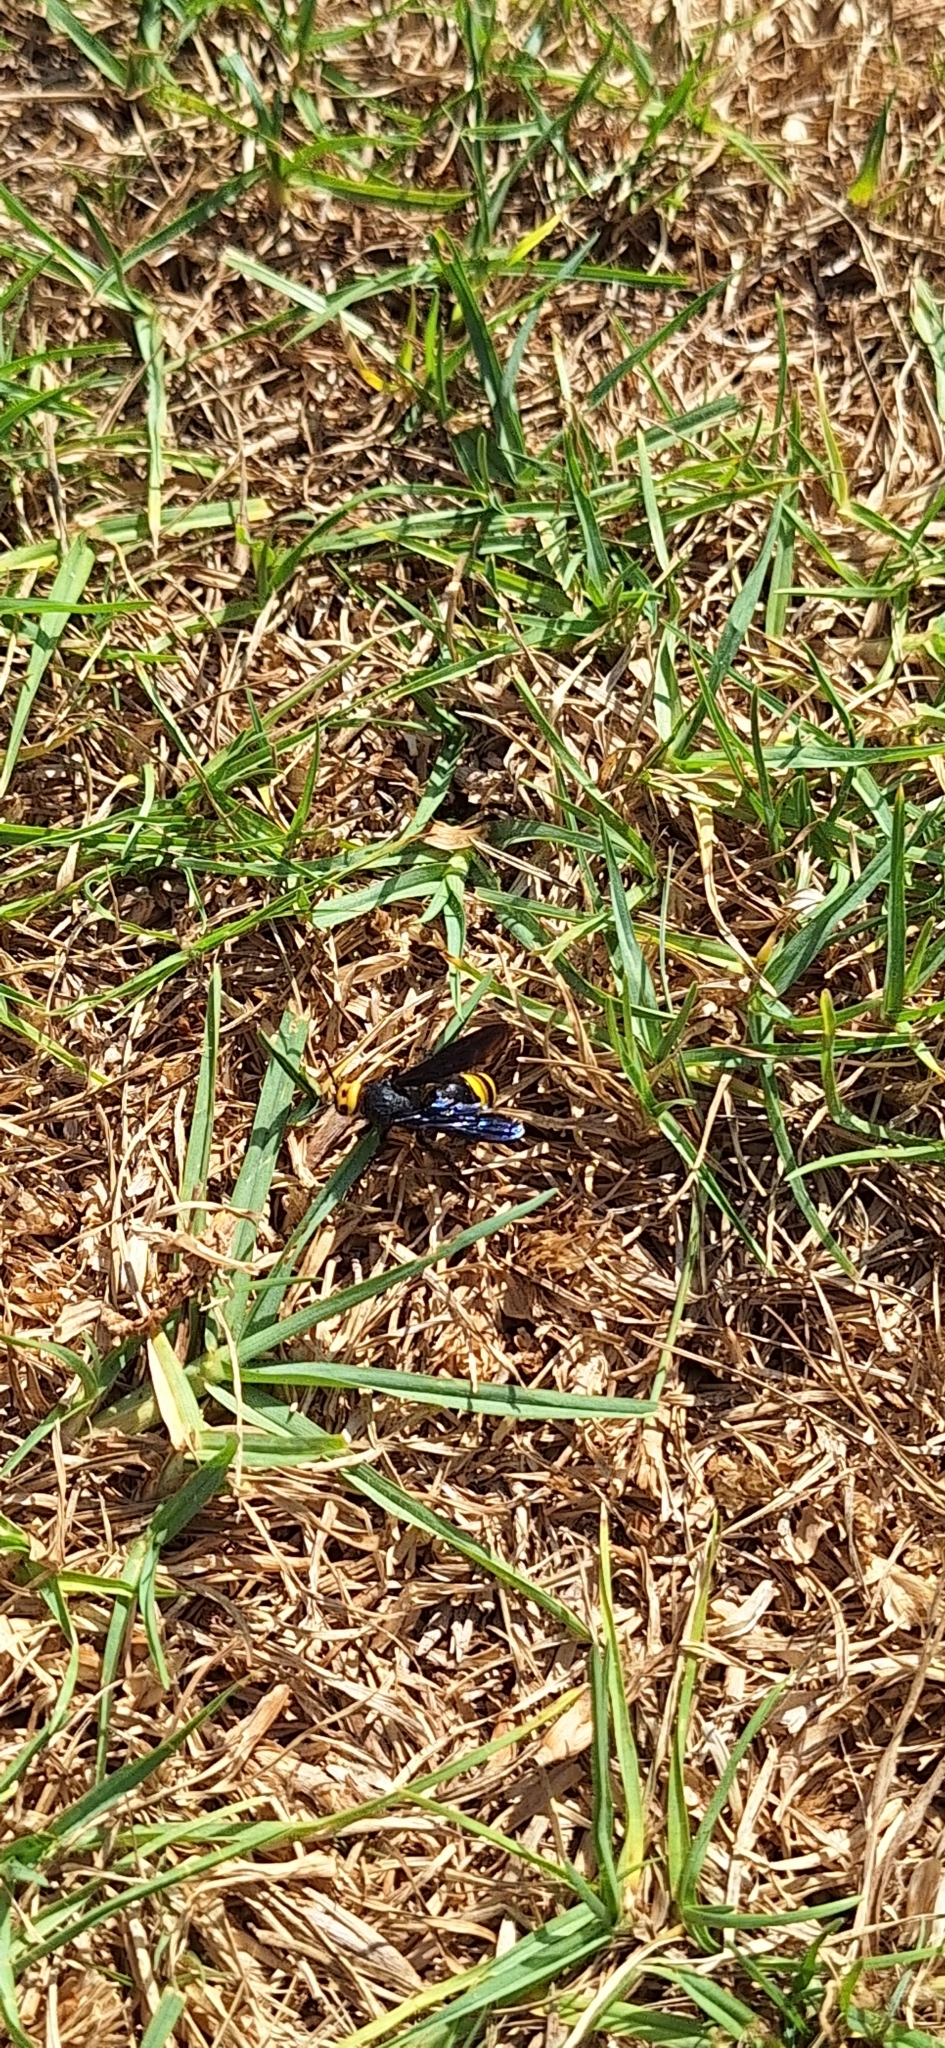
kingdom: Animalia
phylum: Arthropoda
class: Insecta
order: Hymenoptera
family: Scoliidae
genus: Scolia
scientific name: Scolia anatoliae
